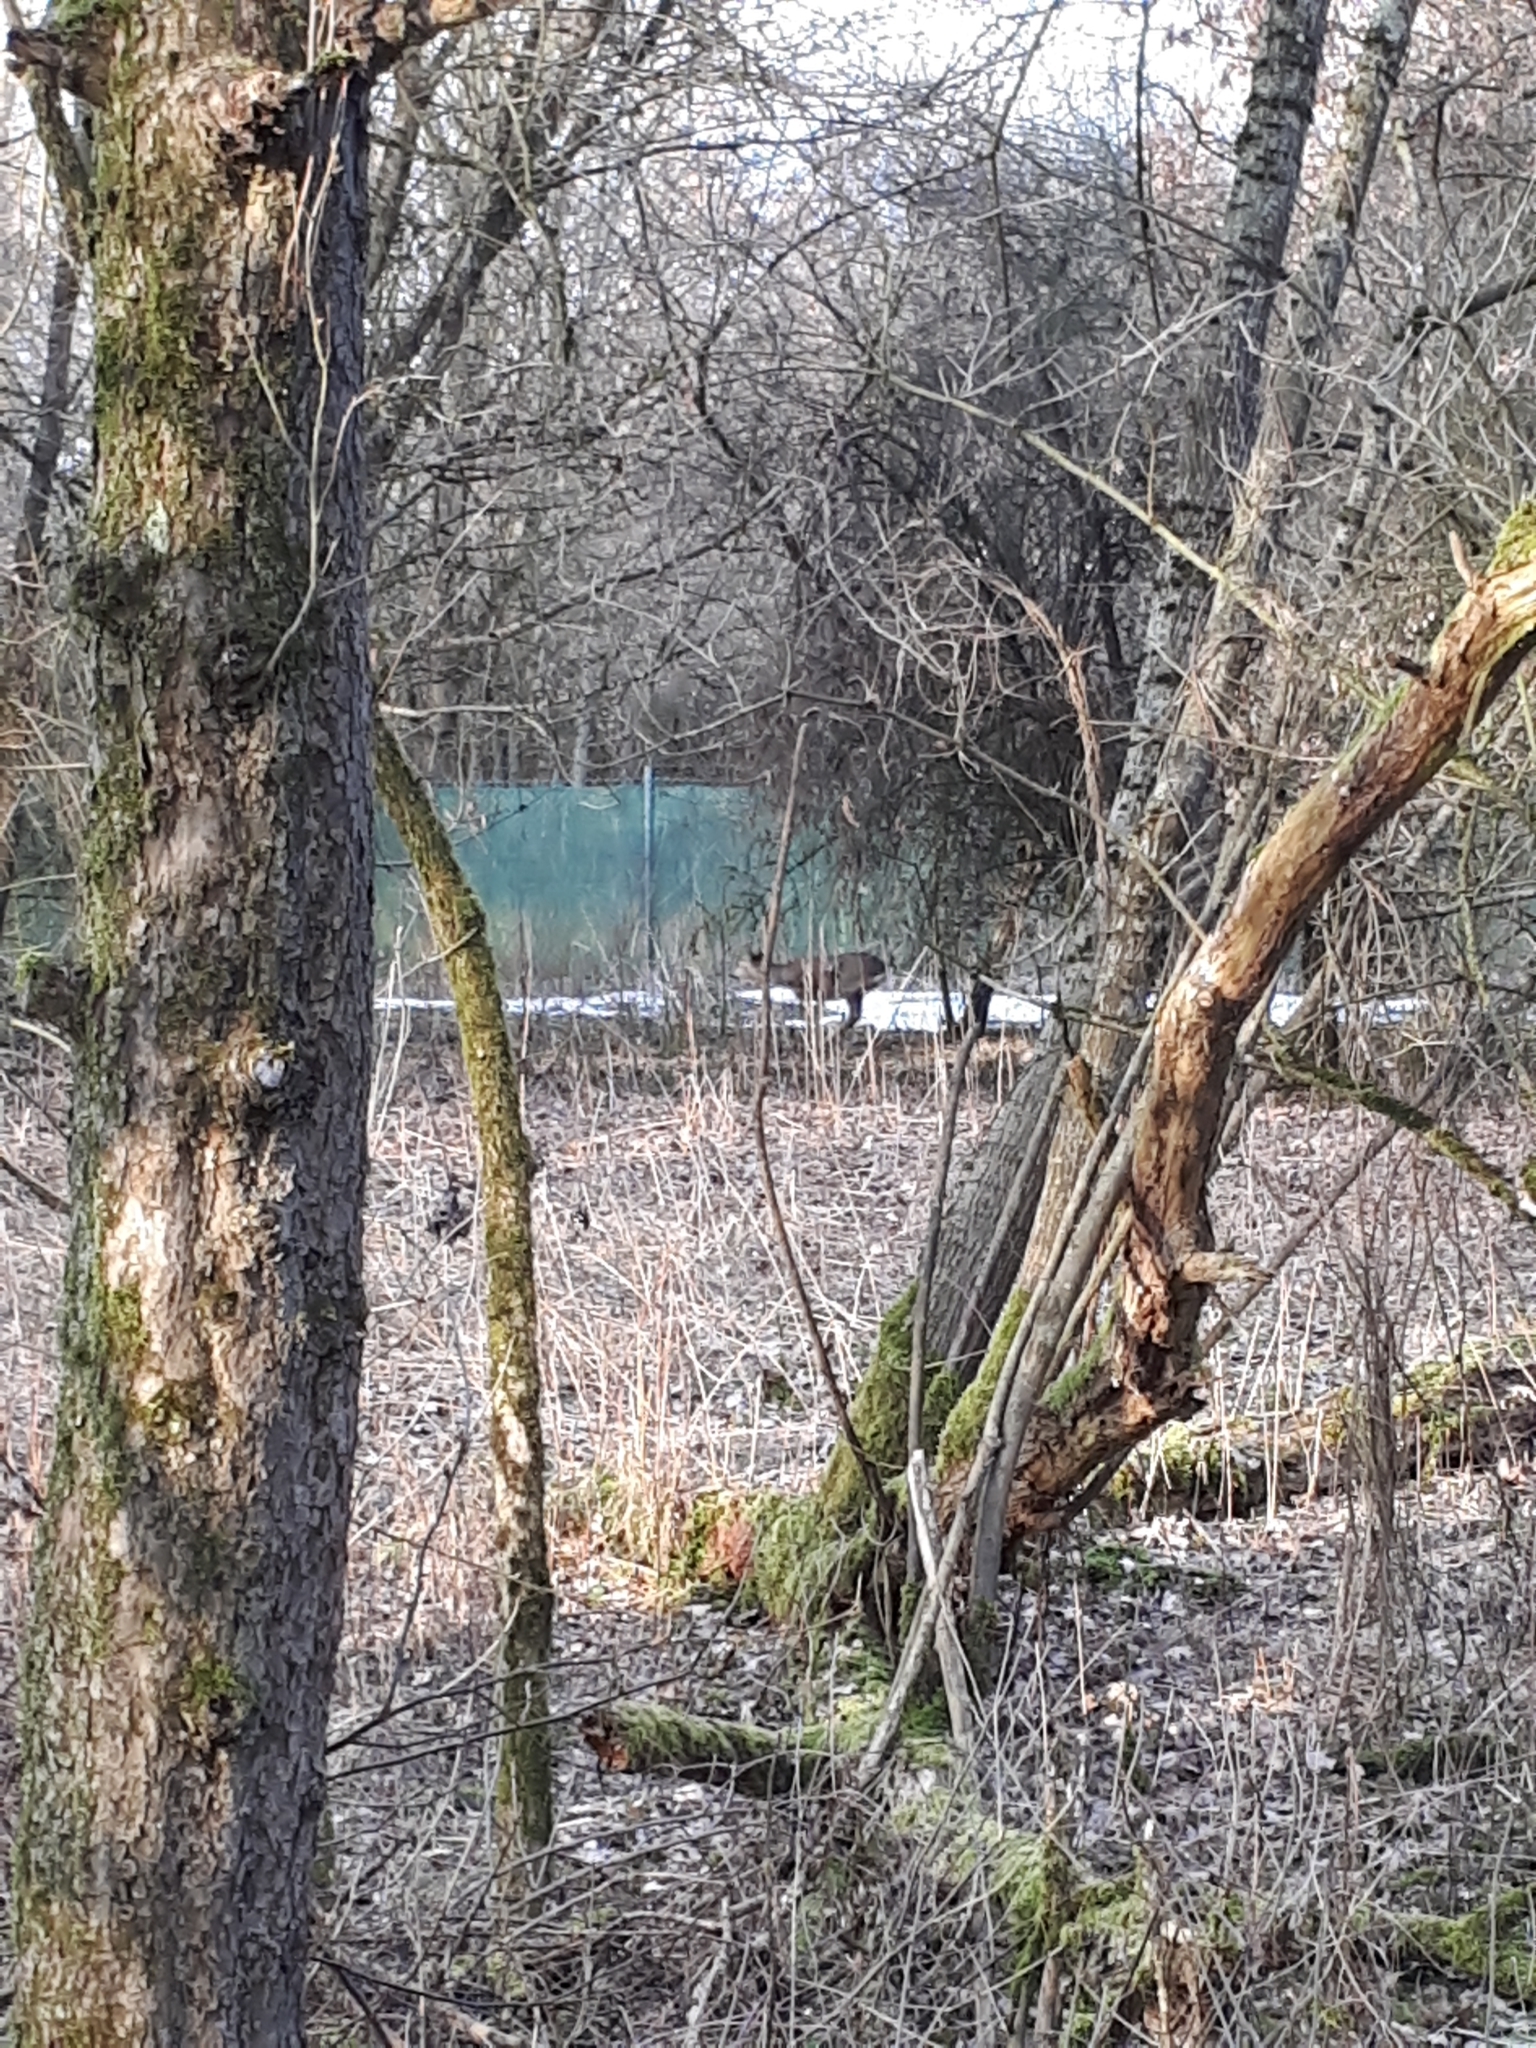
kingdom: Animalia
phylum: Chordata
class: Mammalia
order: Artiodactyla
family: Cervidae
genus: Capreolus
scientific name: Capreolus capreolus
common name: Western roe deer
